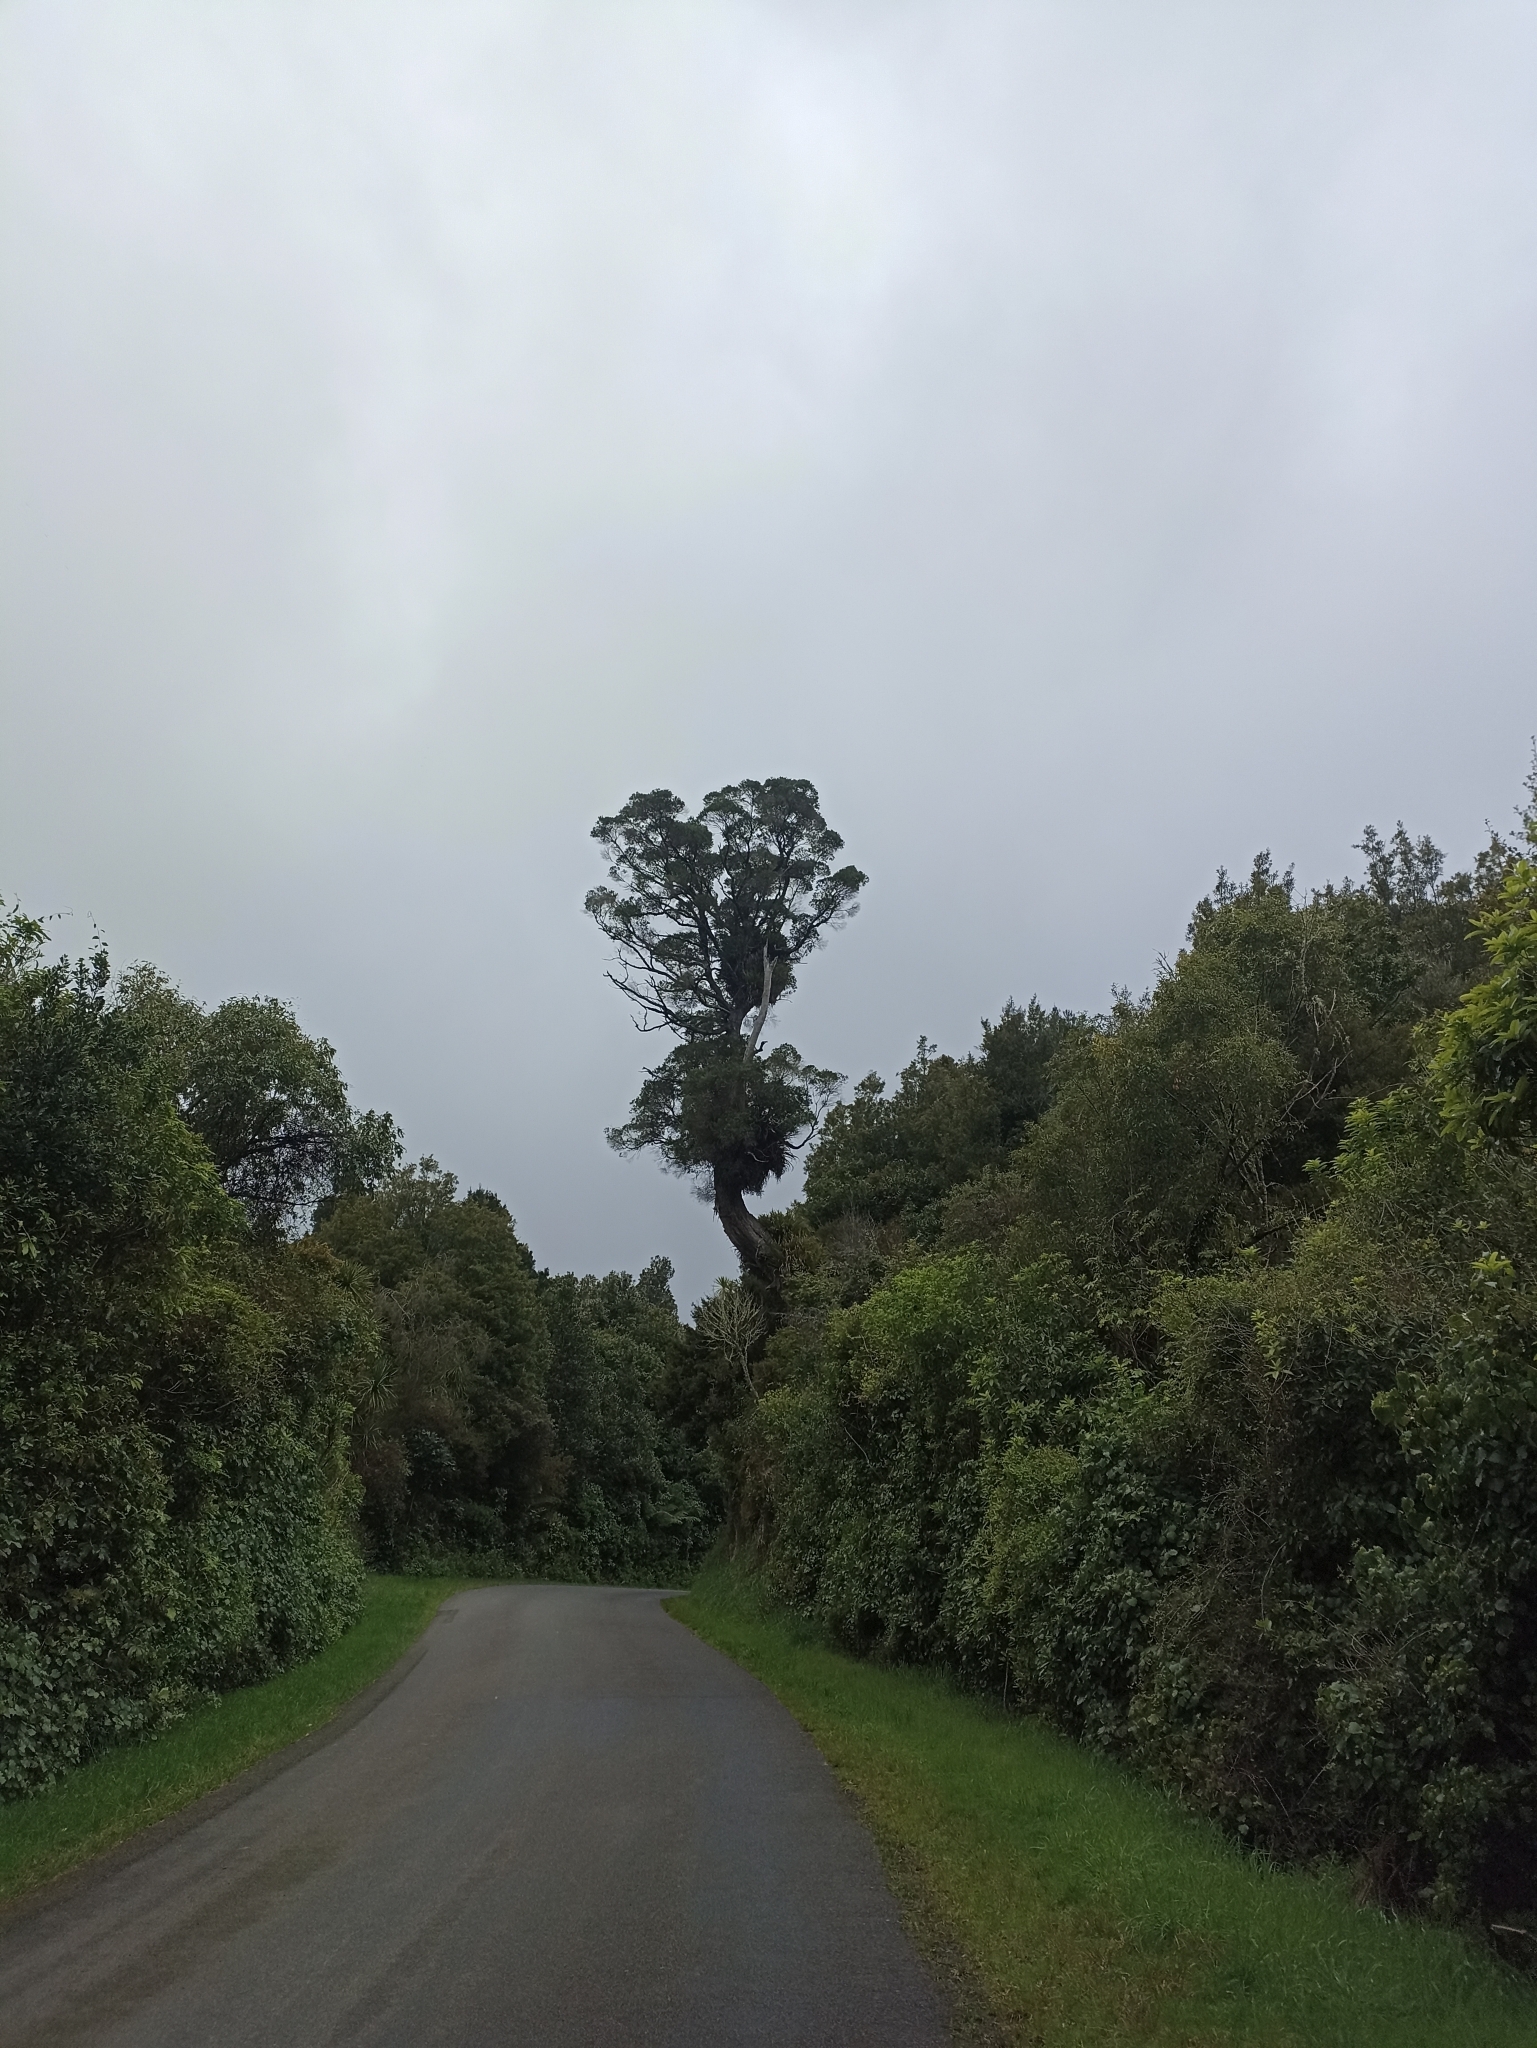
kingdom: Plantae
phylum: Tracheophyta
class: Magnoliopsida
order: Myrtales
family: Myrtaceae
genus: Metrosideros
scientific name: Metrosideros robusta
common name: Northern rata
